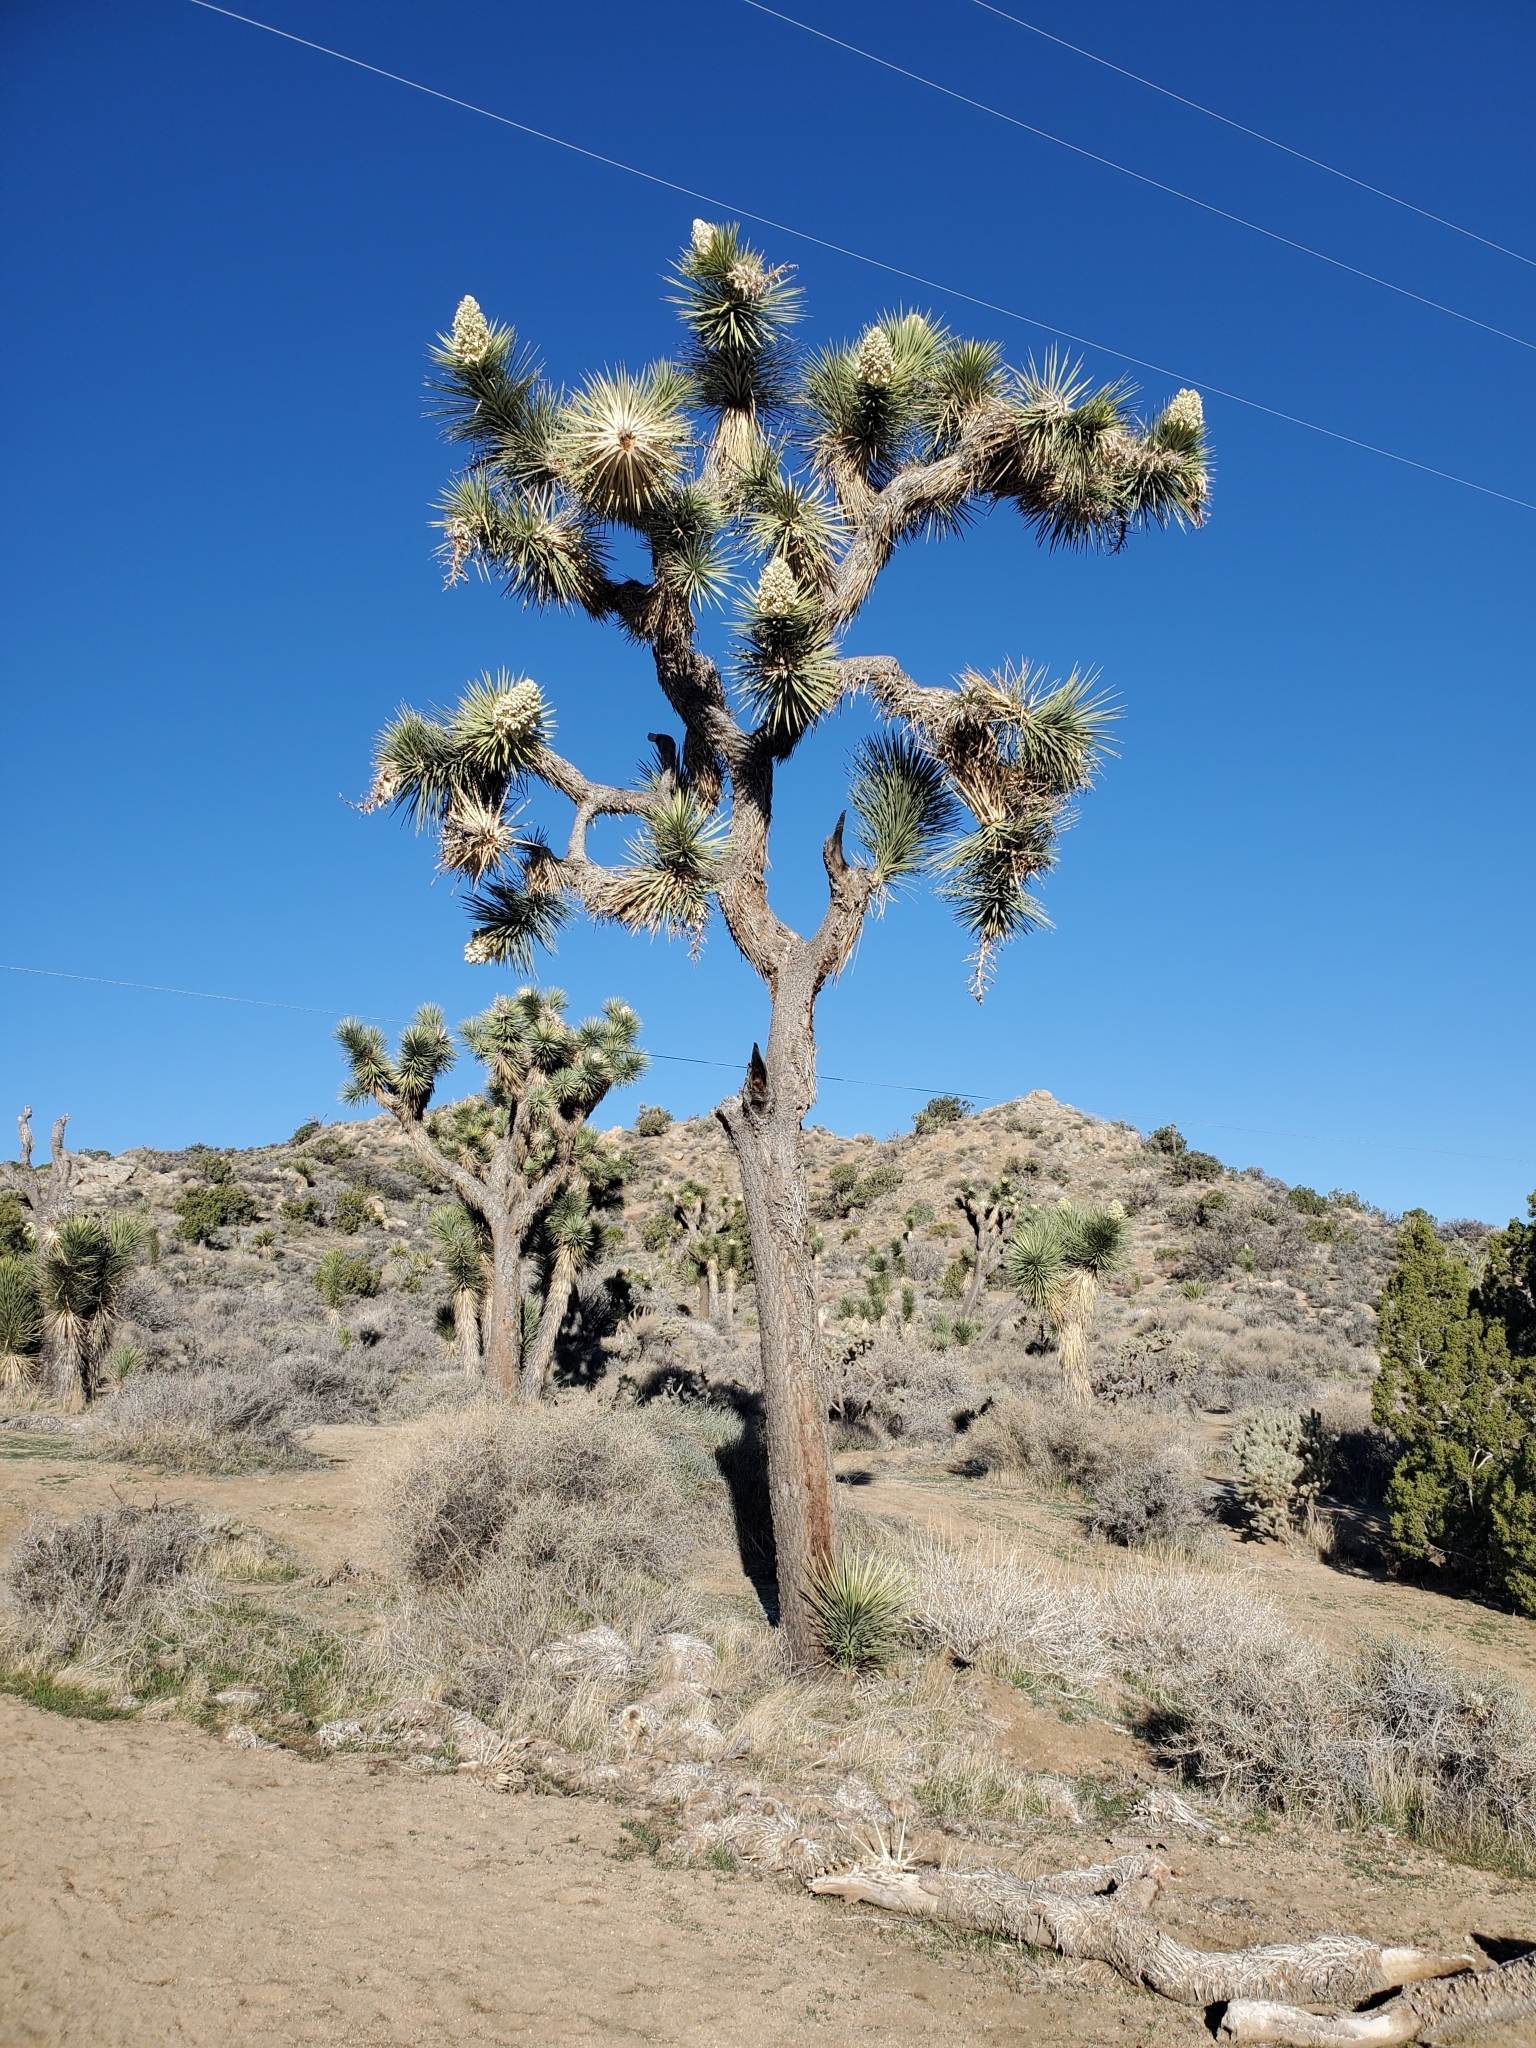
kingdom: Plantae
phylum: Tracheophyta
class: Liliopsida
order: Asparagales
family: Asparagaceae
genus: Yucca
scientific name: Yucca brevifolia
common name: Joshua tree
